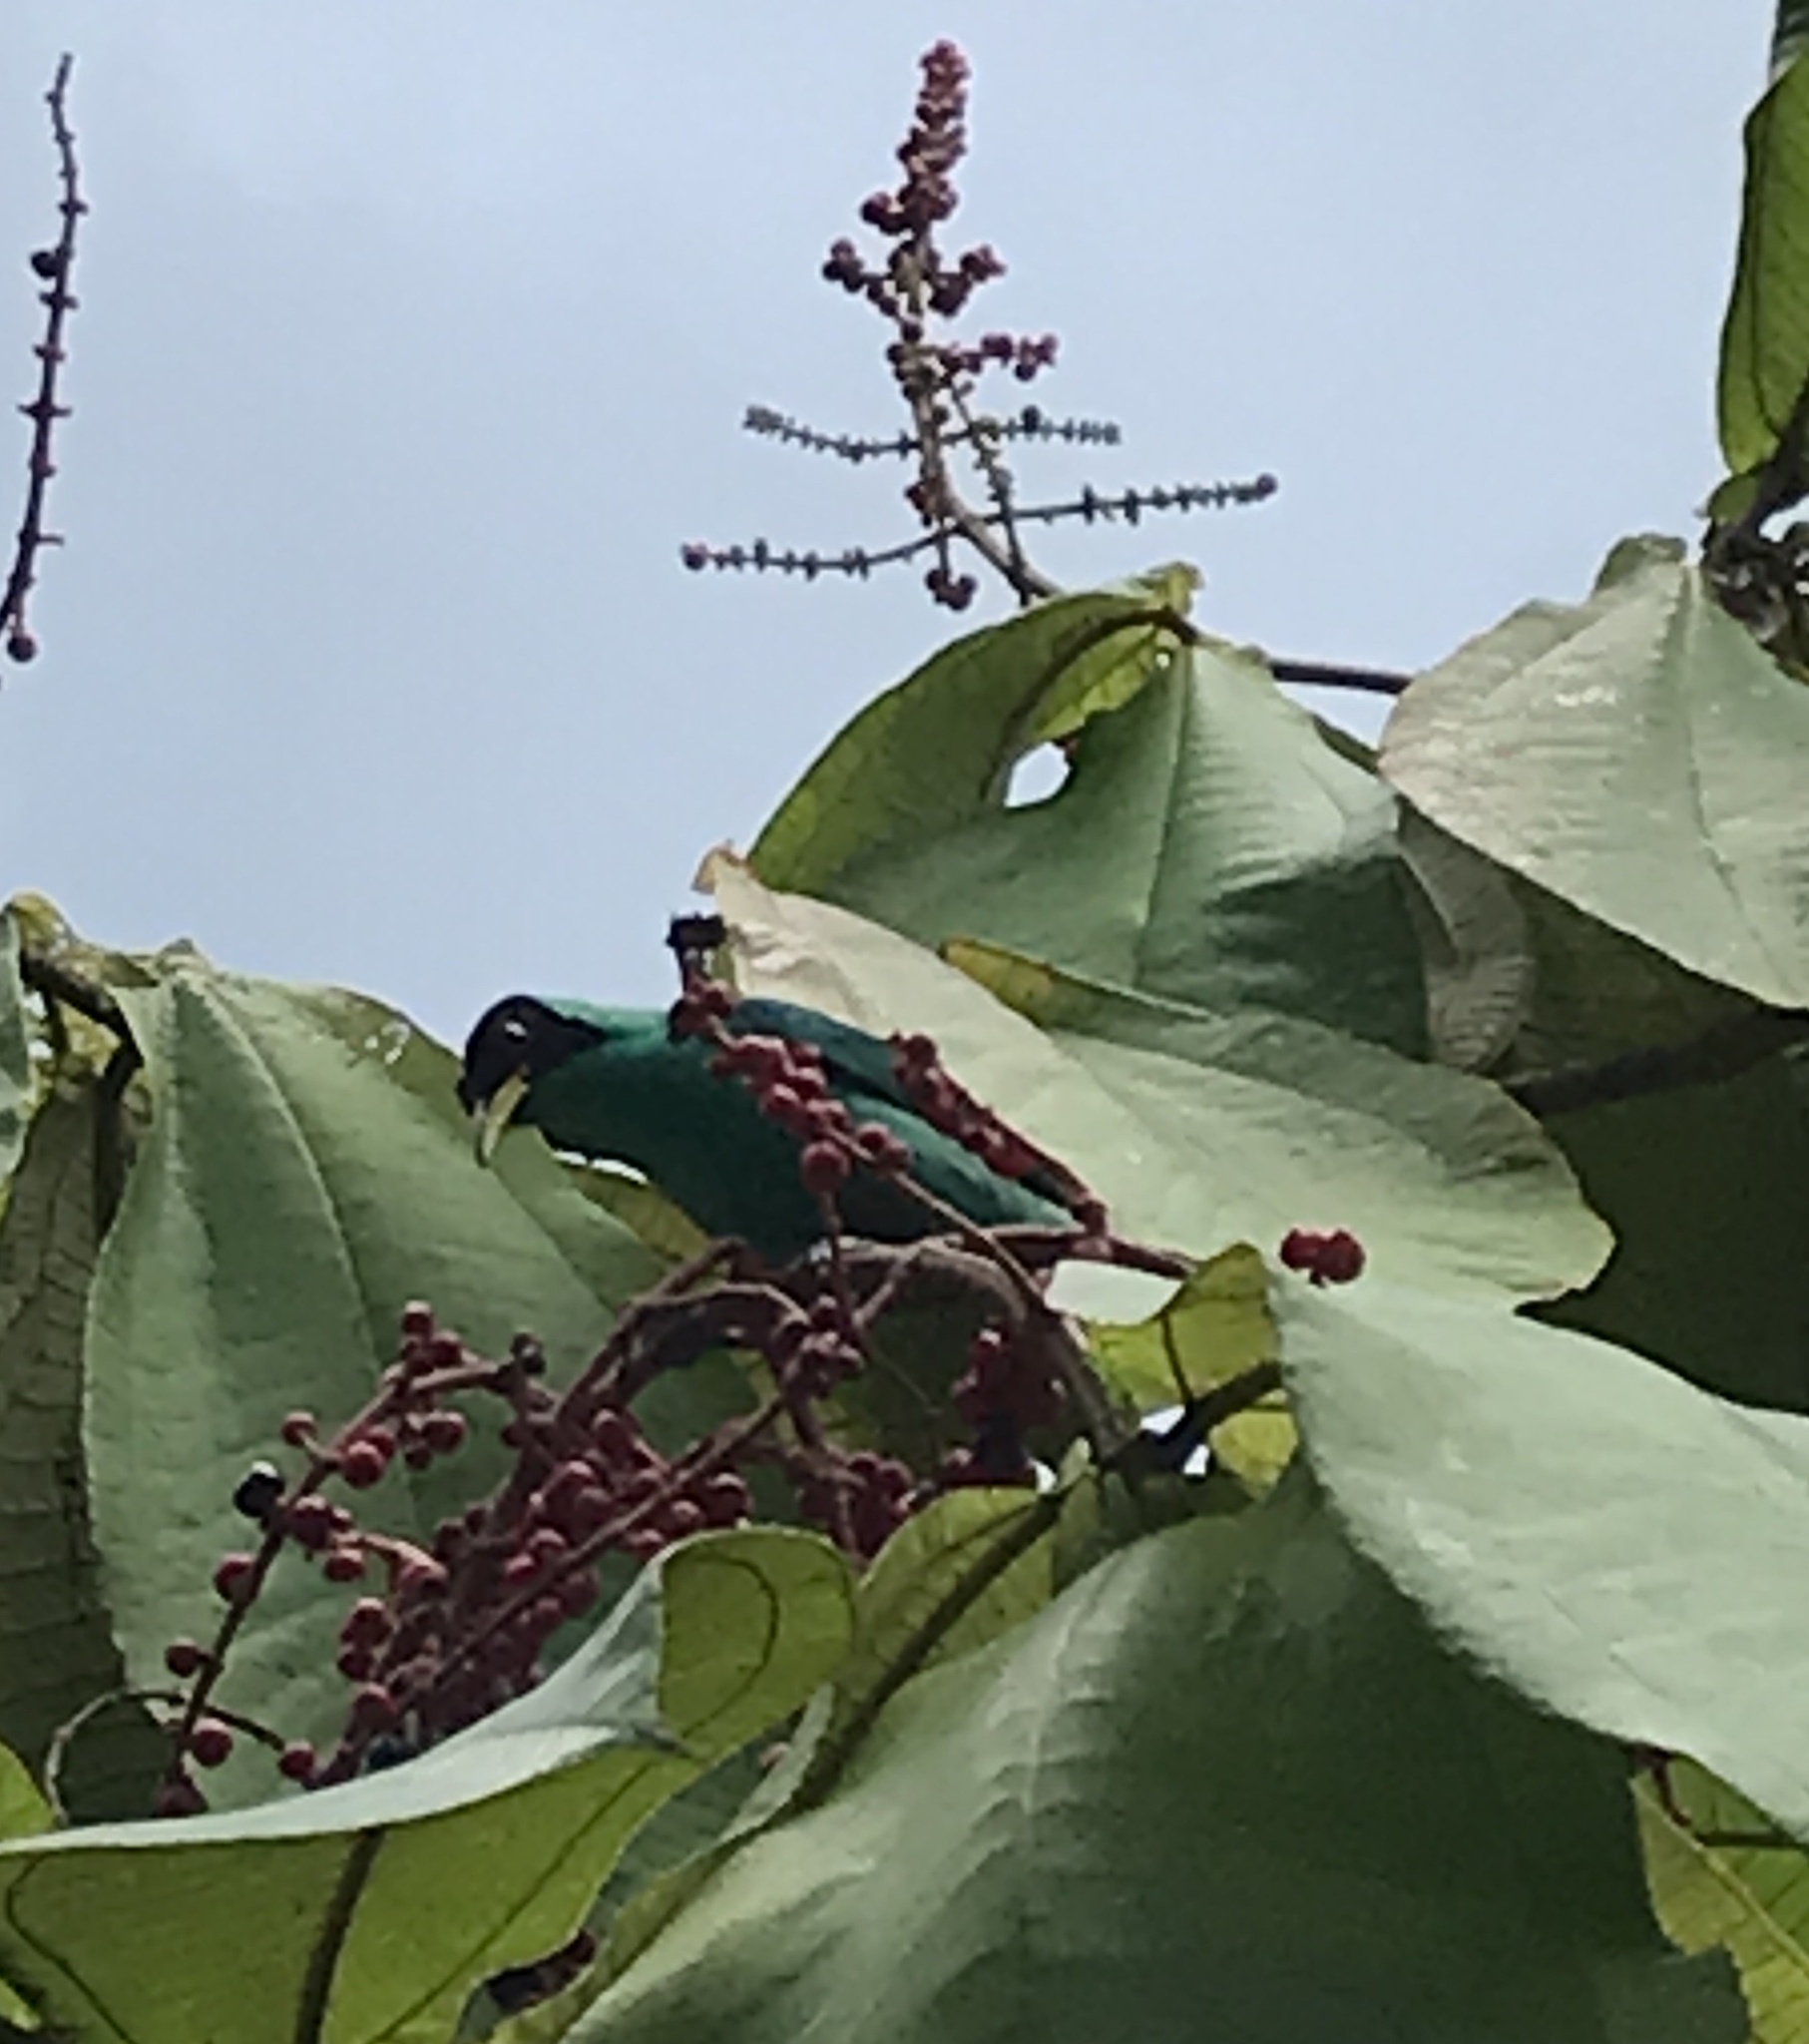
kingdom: Animalia
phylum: Chordata
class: Aves
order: Passeriformes
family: Thraupidae
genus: Chlorophanes
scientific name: Chlorophanes spiza
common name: Green honeycreeper
